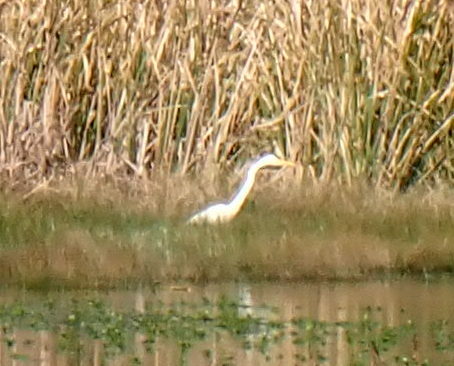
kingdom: Animalia
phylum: Chordata
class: Aves
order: Pelecaniformes
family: Ardeidae
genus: Ardea
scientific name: Ardea alba
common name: Great egret
